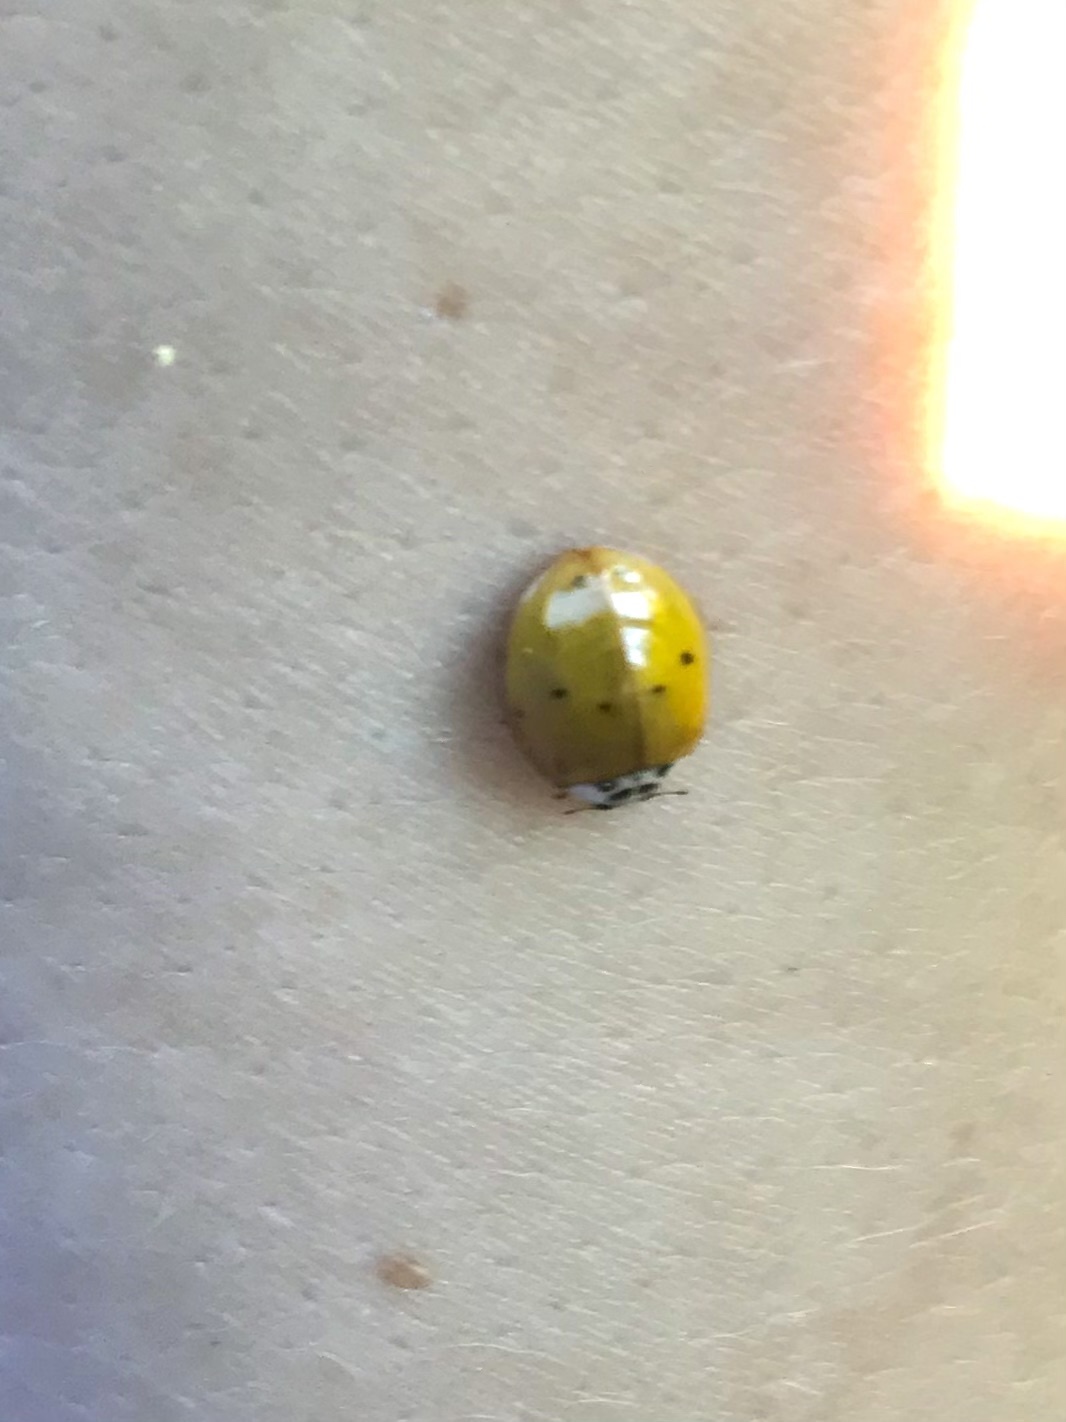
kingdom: Animalia
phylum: Arthropoda
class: Insecta
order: Coleoptera
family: Coccinellidae
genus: Harmonia
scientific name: Harmonia axyridis
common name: Harlequin ladybird
